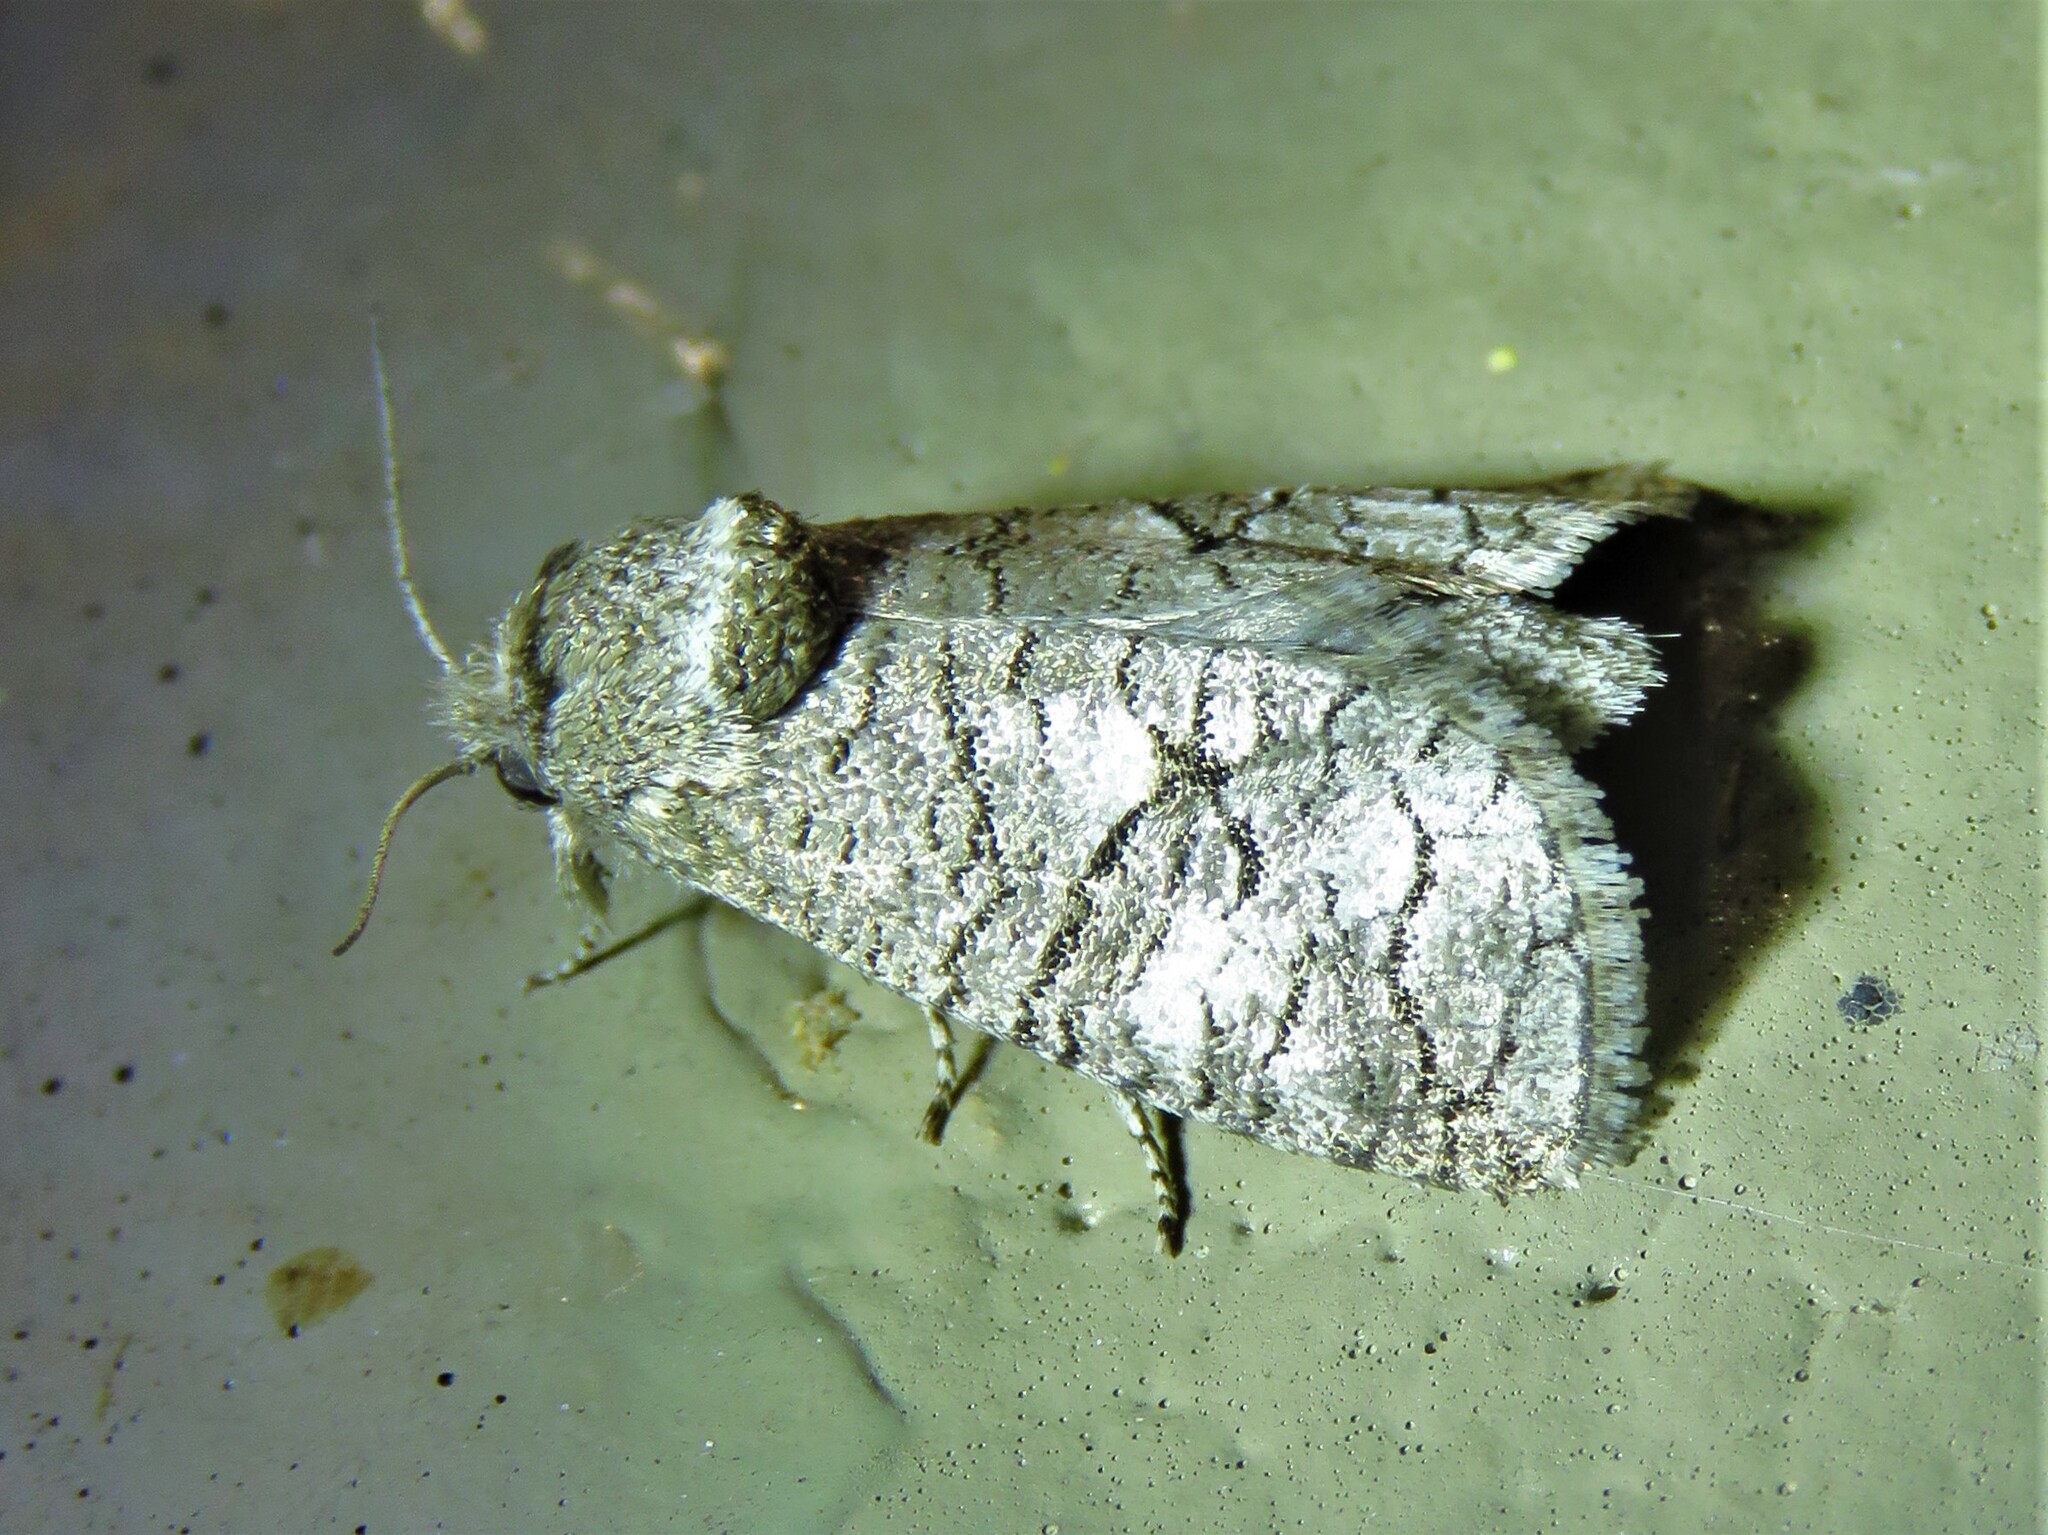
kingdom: Animalia
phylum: Arthropoda
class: Insecta
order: Lepidoptera
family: Cossidae
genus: Fania
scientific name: Fania nanus
